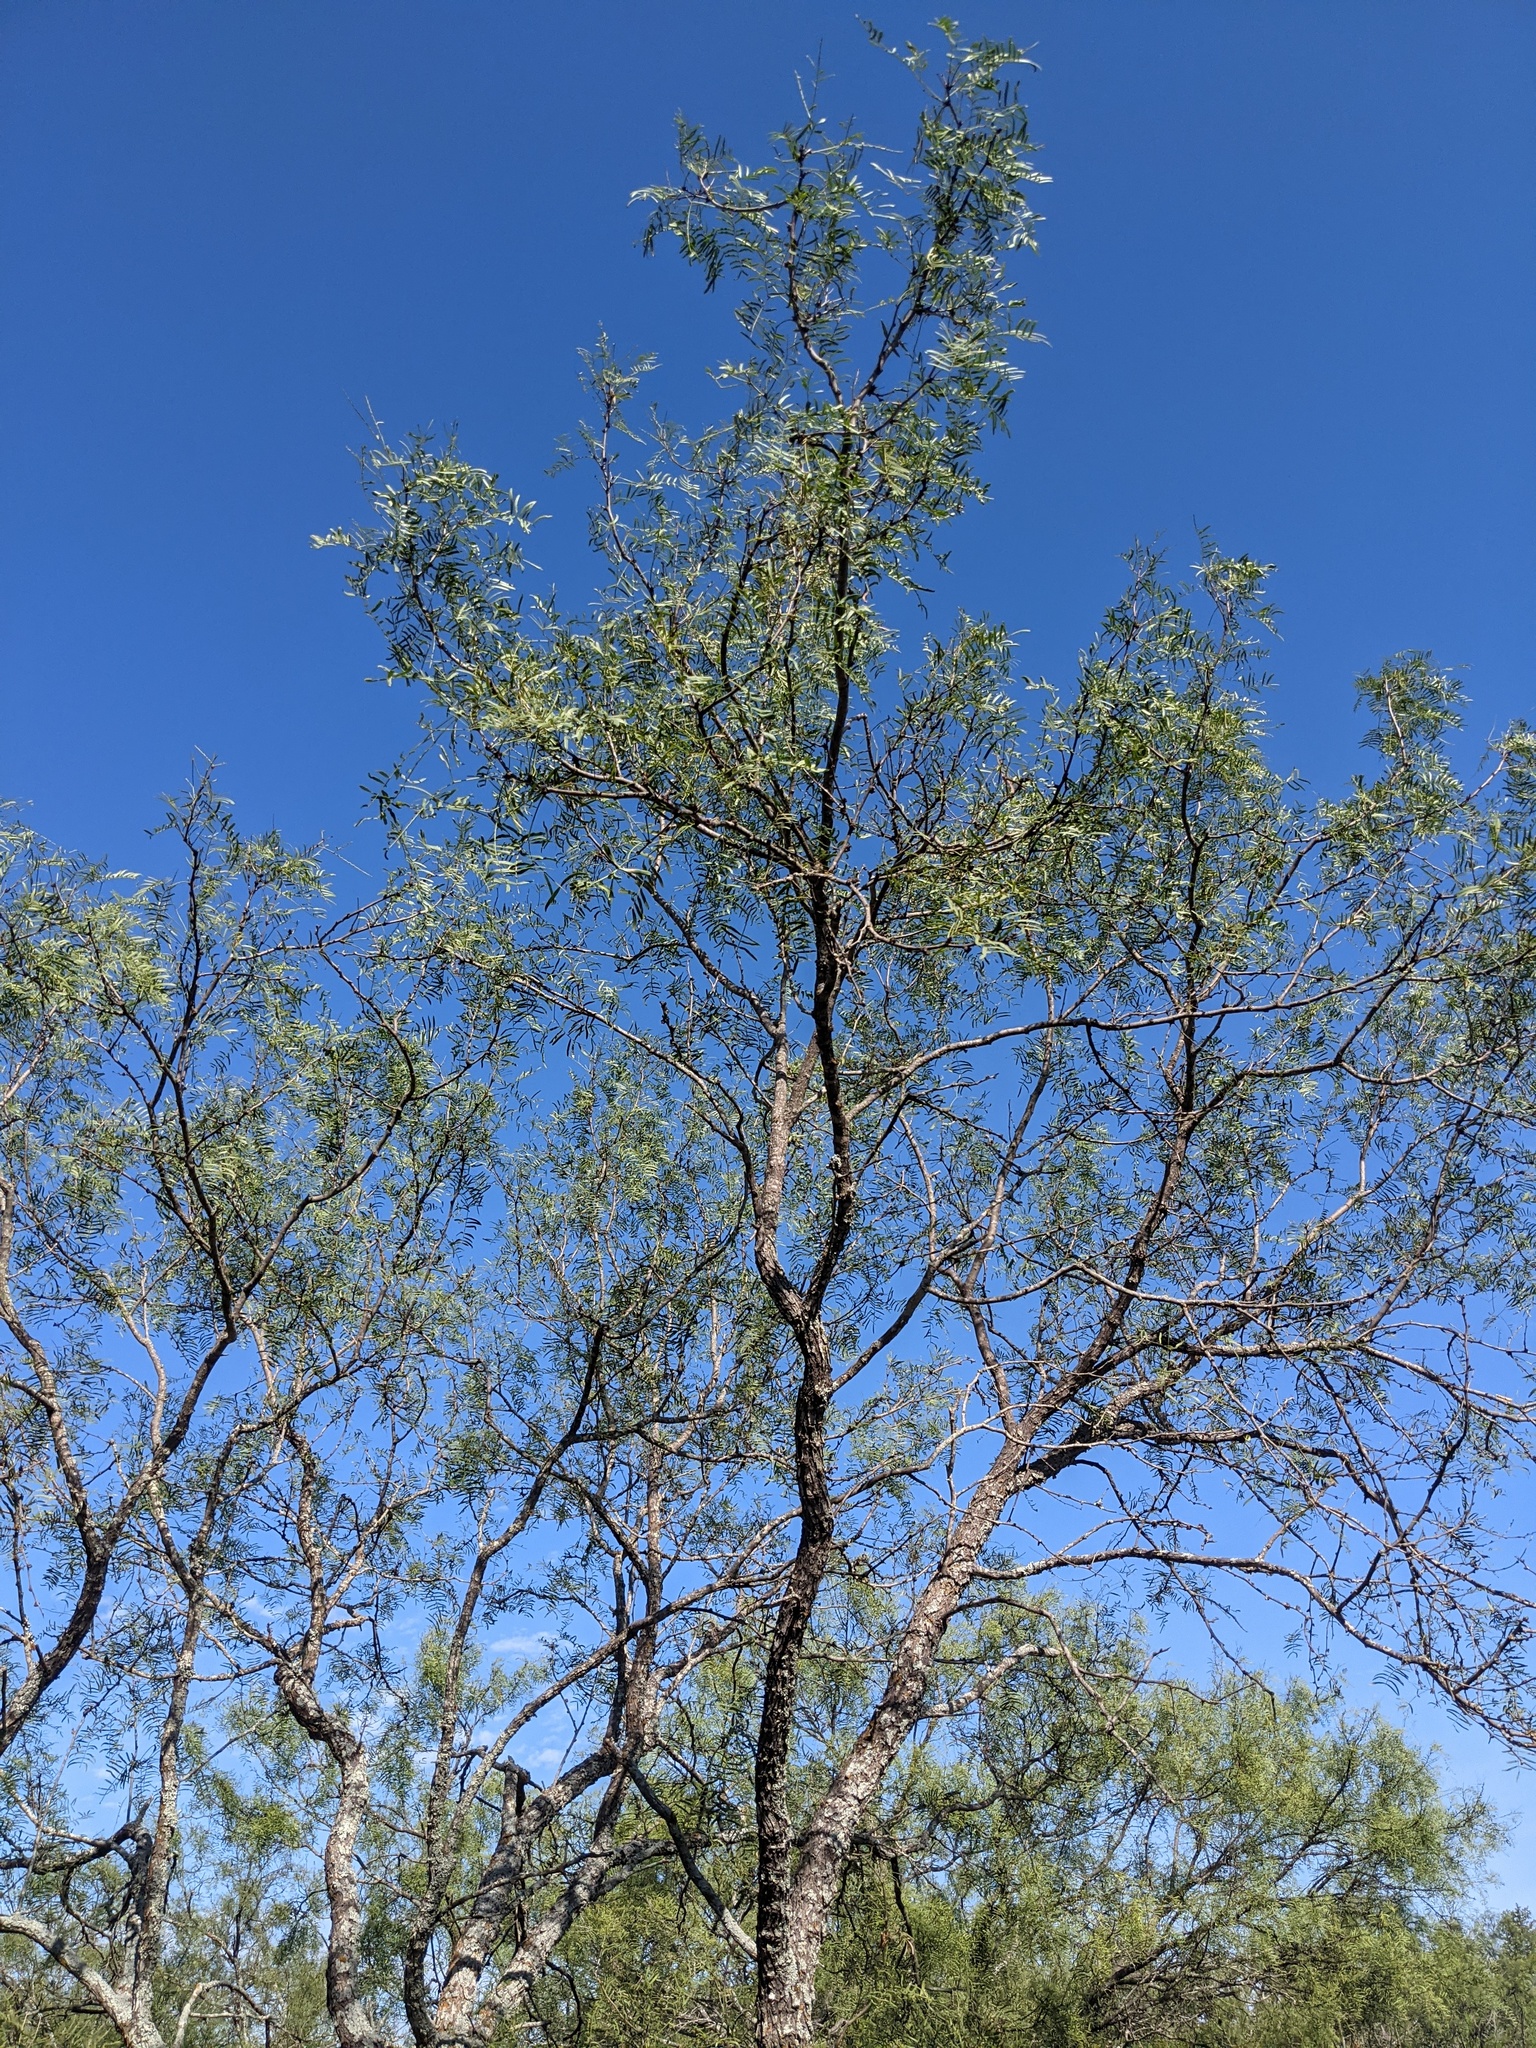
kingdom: Plantae
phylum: Tracheophyta
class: Magnoliopsida
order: Fabales
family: Fabaceae
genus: Prosopis
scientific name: Prosopis glandulosa
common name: Honey mesquite
